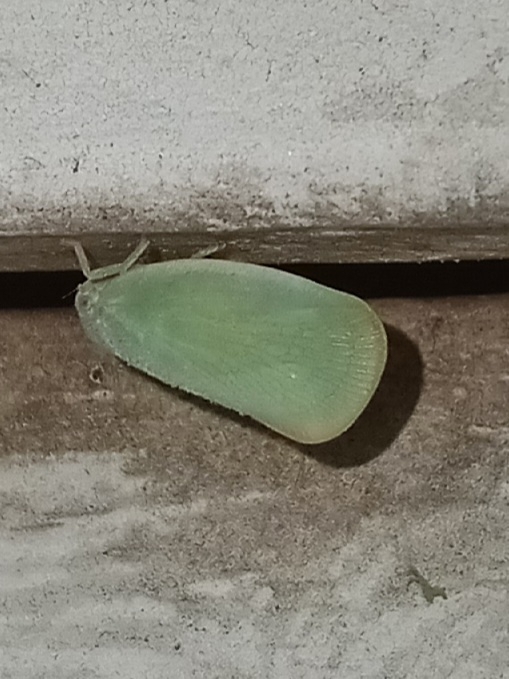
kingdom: Animalia
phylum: Arthropoda
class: Insecta
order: Hemiptera
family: Flatidae
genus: Ormenoides
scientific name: Ormenoides venusta
